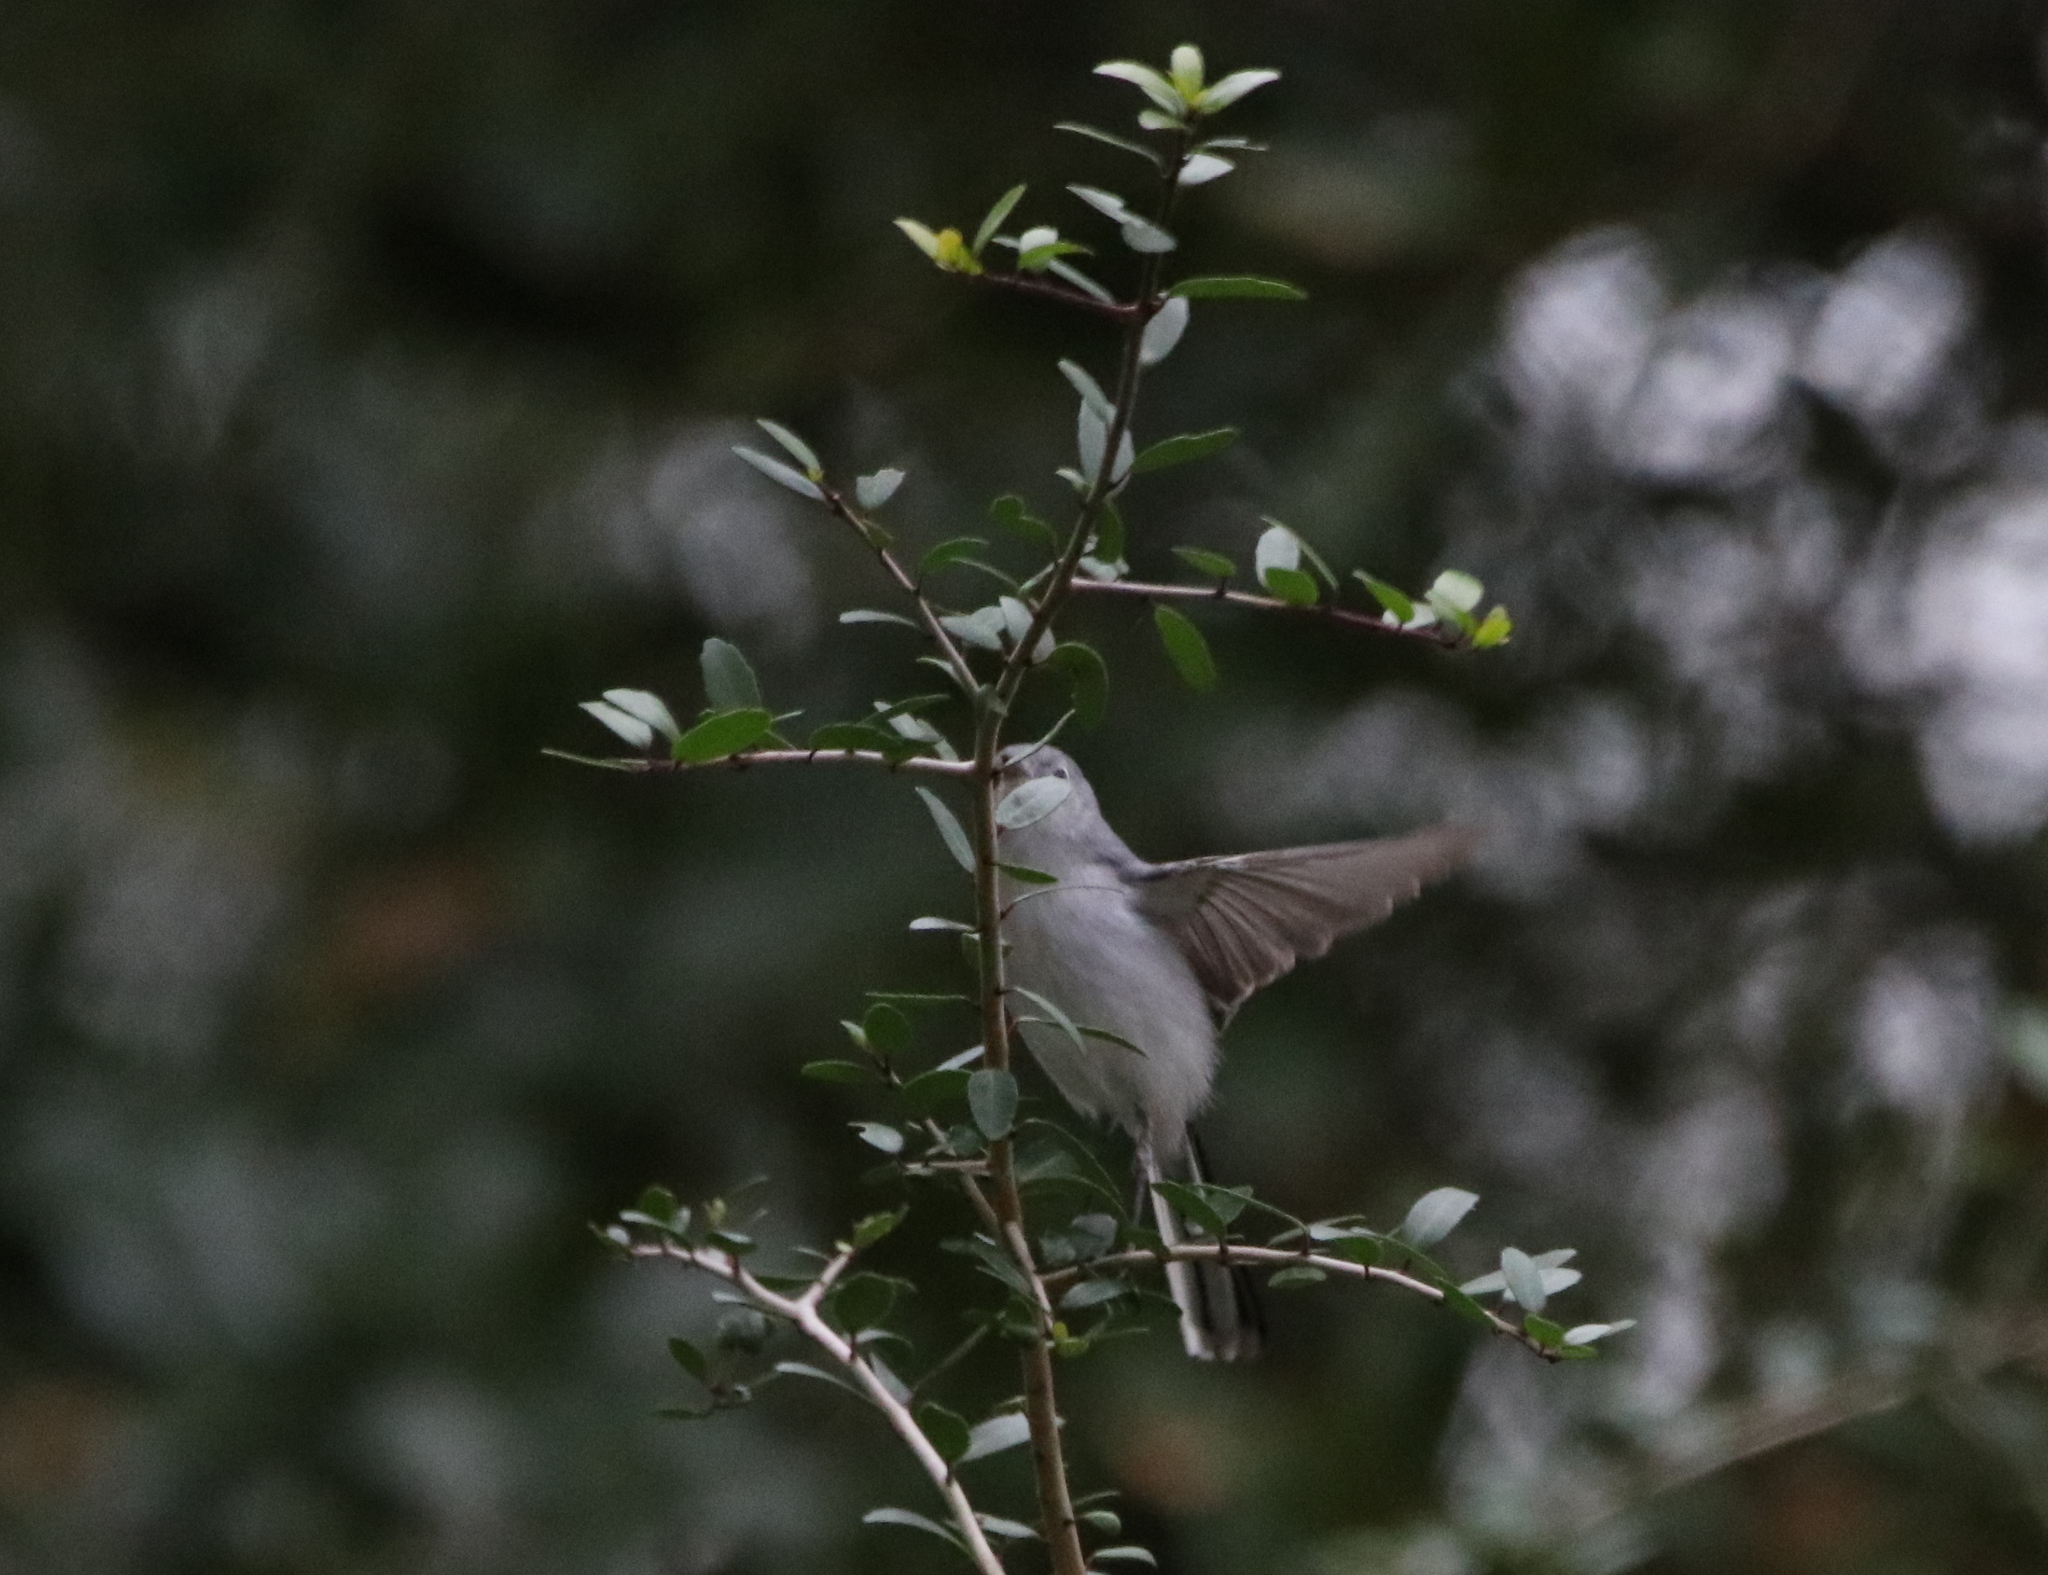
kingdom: Animalia
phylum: Chordata
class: Aves
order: Passeriformes
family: Polioptilidae
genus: Polioptila
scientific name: Polioptila caerulea
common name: Blue-gray gnatcatcher
